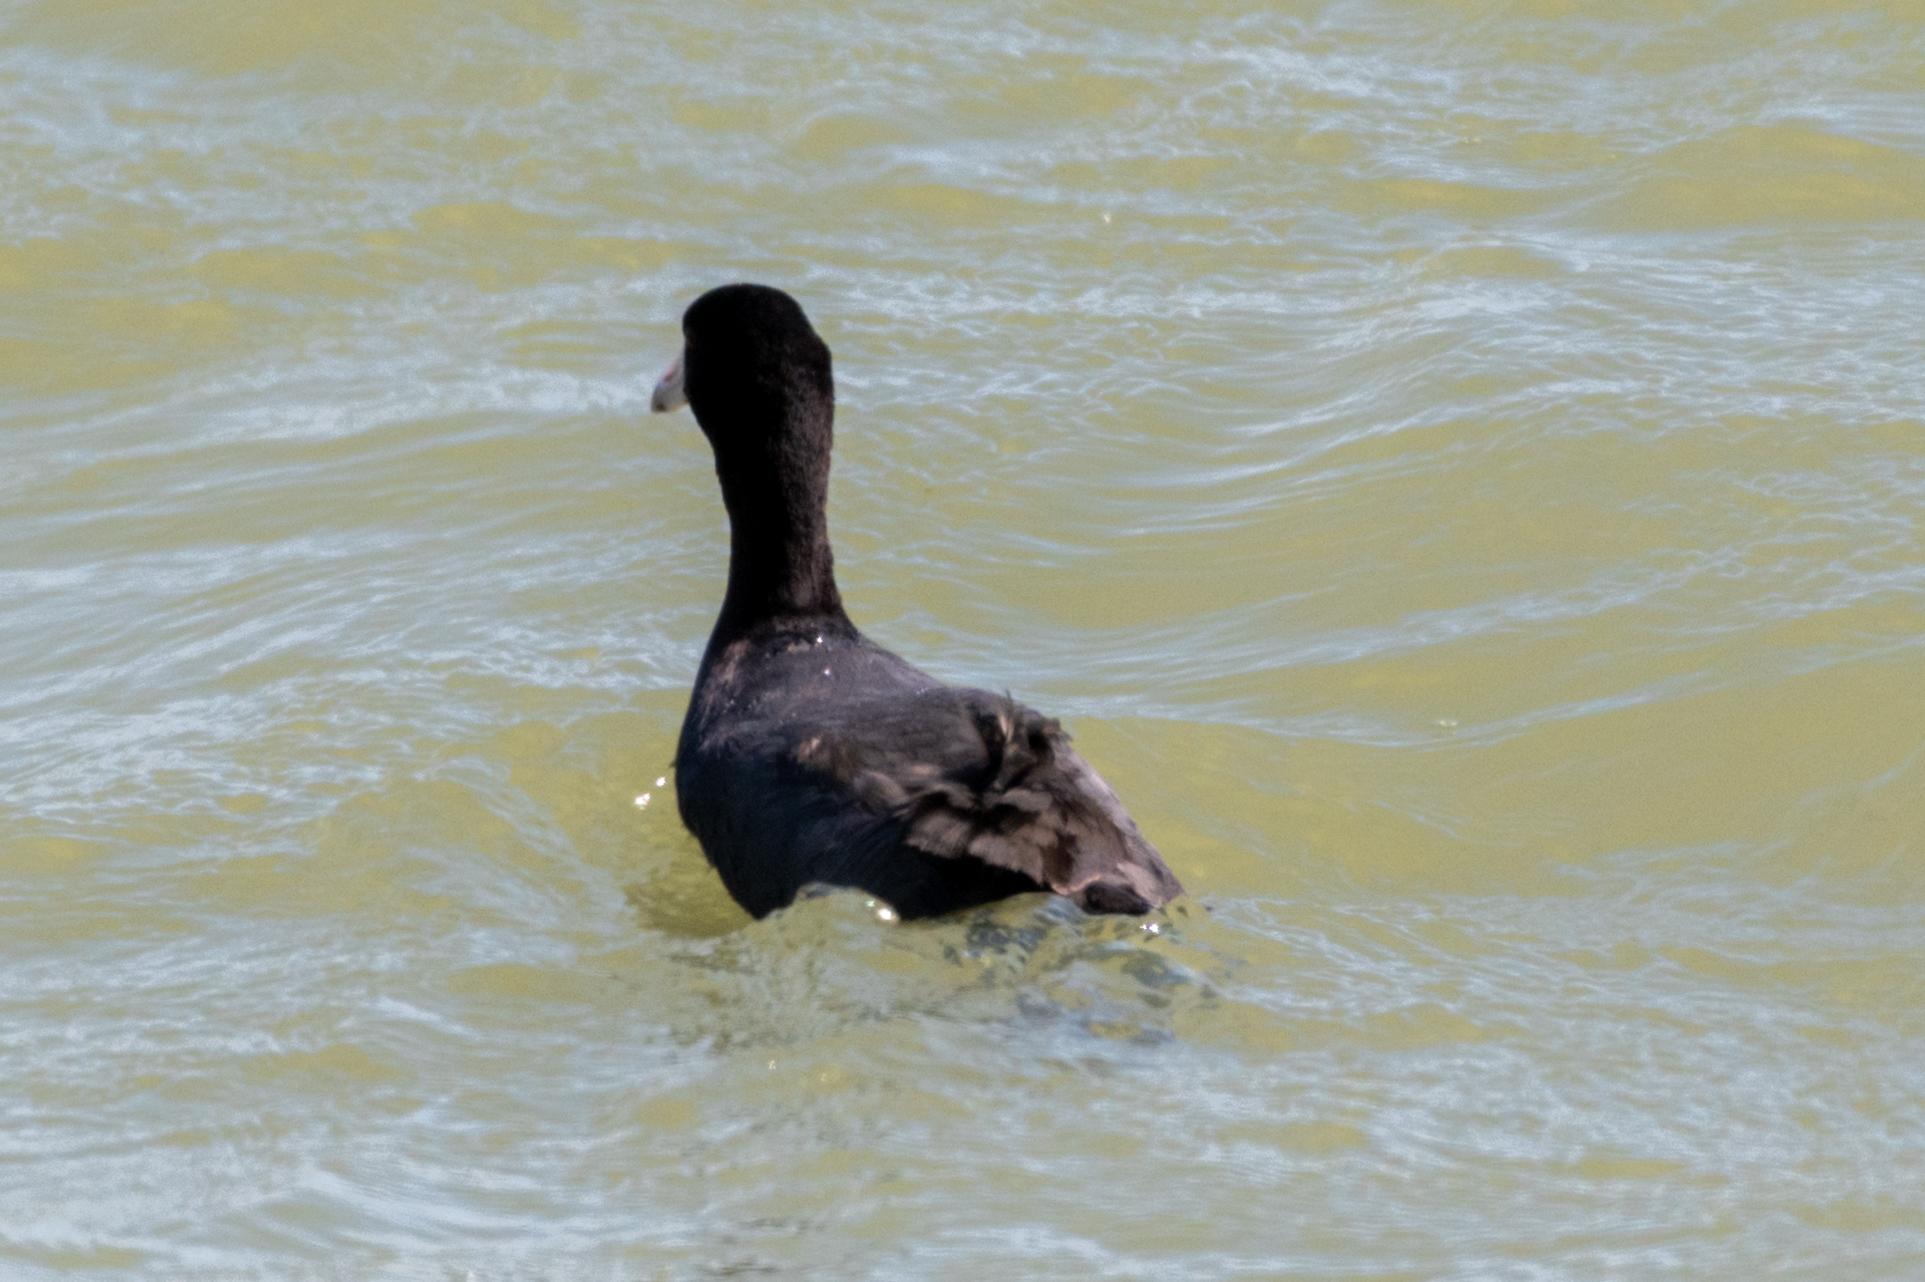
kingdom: Animalia
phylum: Chordata
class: Aves
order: Gruiformes
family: Rallidae
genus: Fulica
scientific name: Fulica americana
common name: American coot
